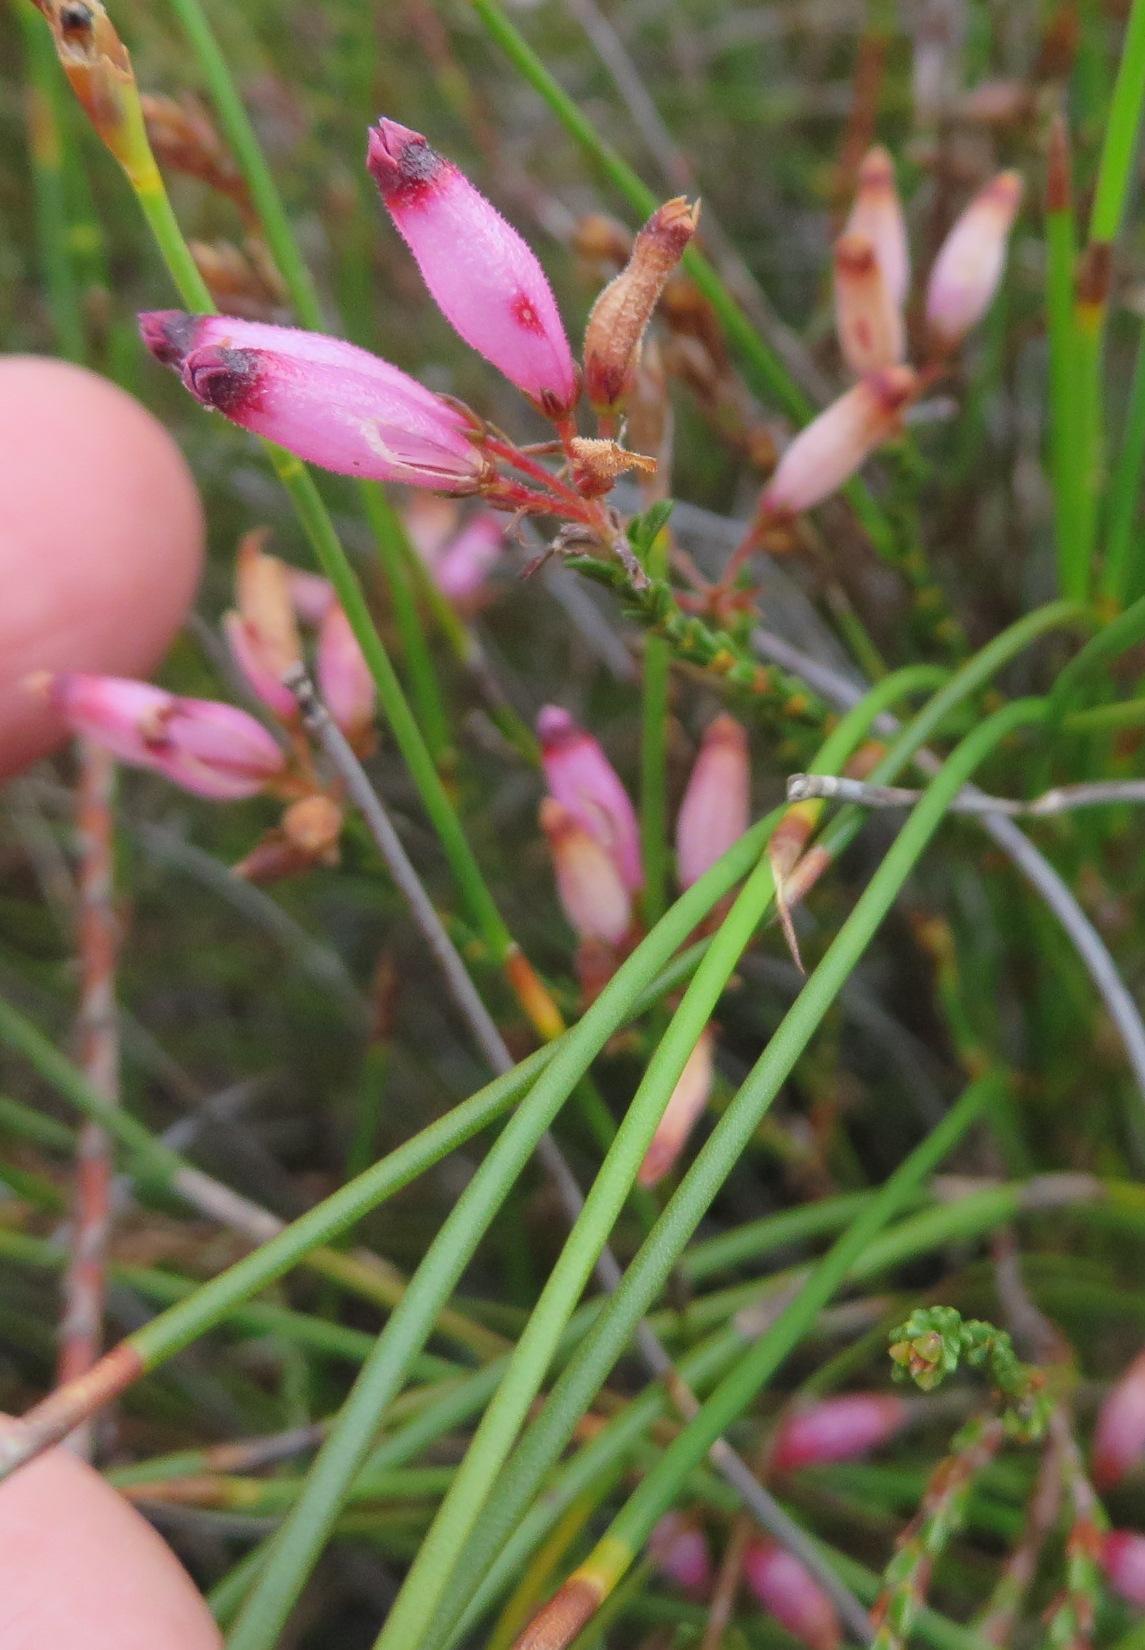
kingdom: Plantae
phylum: Tracheophyta
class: Magnoliopsida
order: Ericales
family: Ericaceae
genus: Erica
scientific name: Erica cristata
